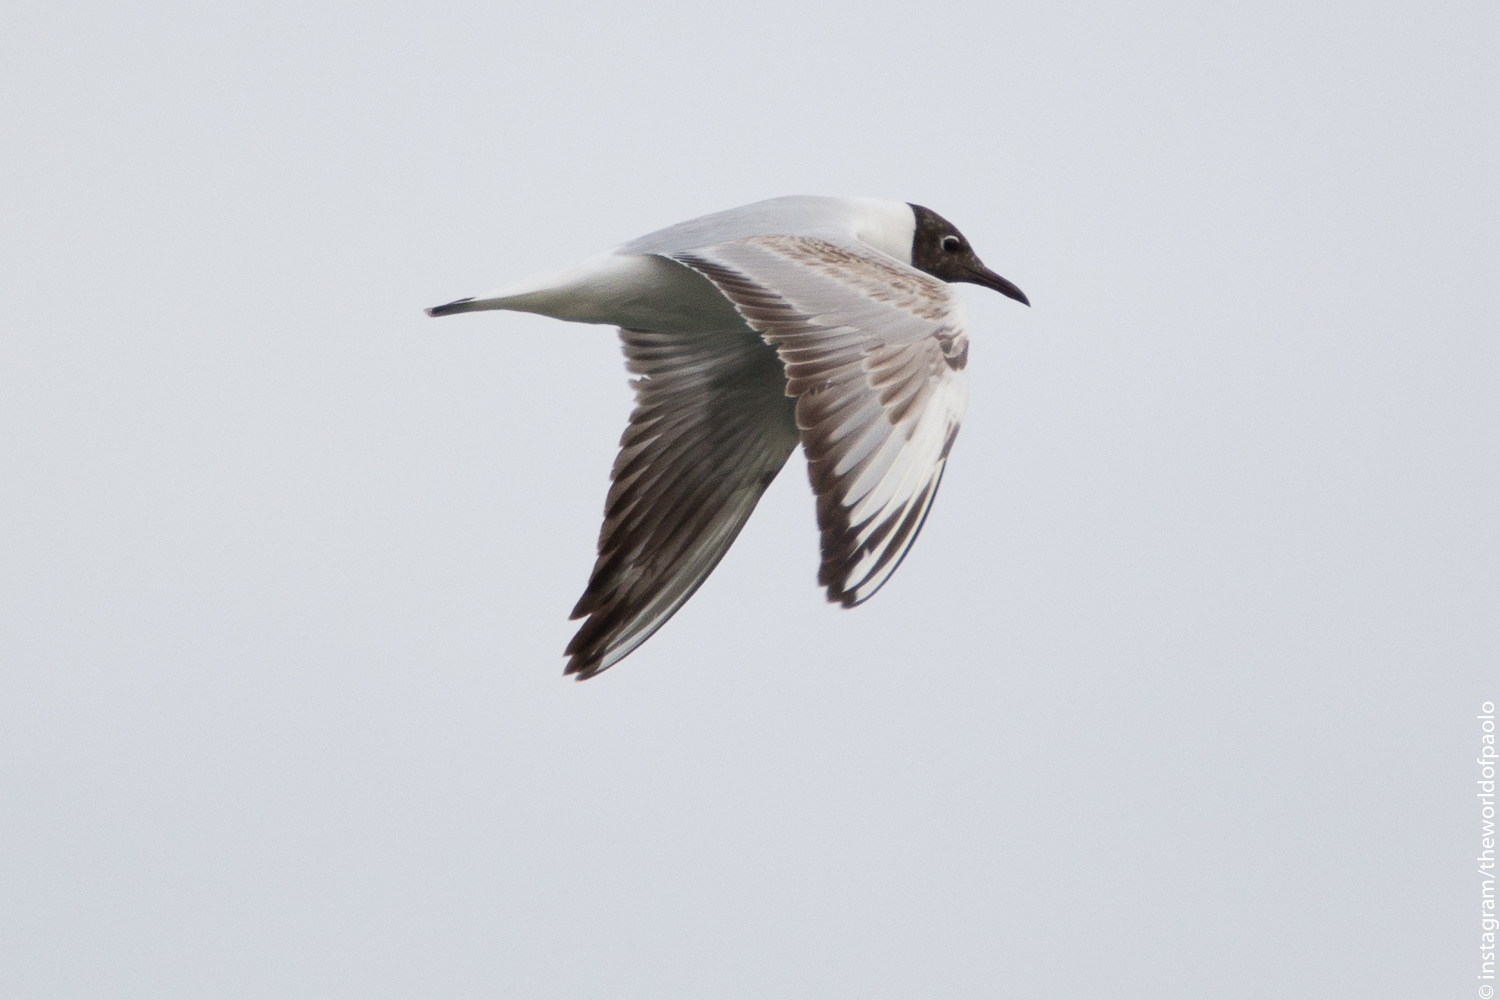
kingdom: Animalia
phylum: Chordata
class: Aves
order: Charadriiformes
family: Laridae
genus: Chroicocephalus
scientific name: Chroicocephalus ridibundus
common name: Black-headed gull
